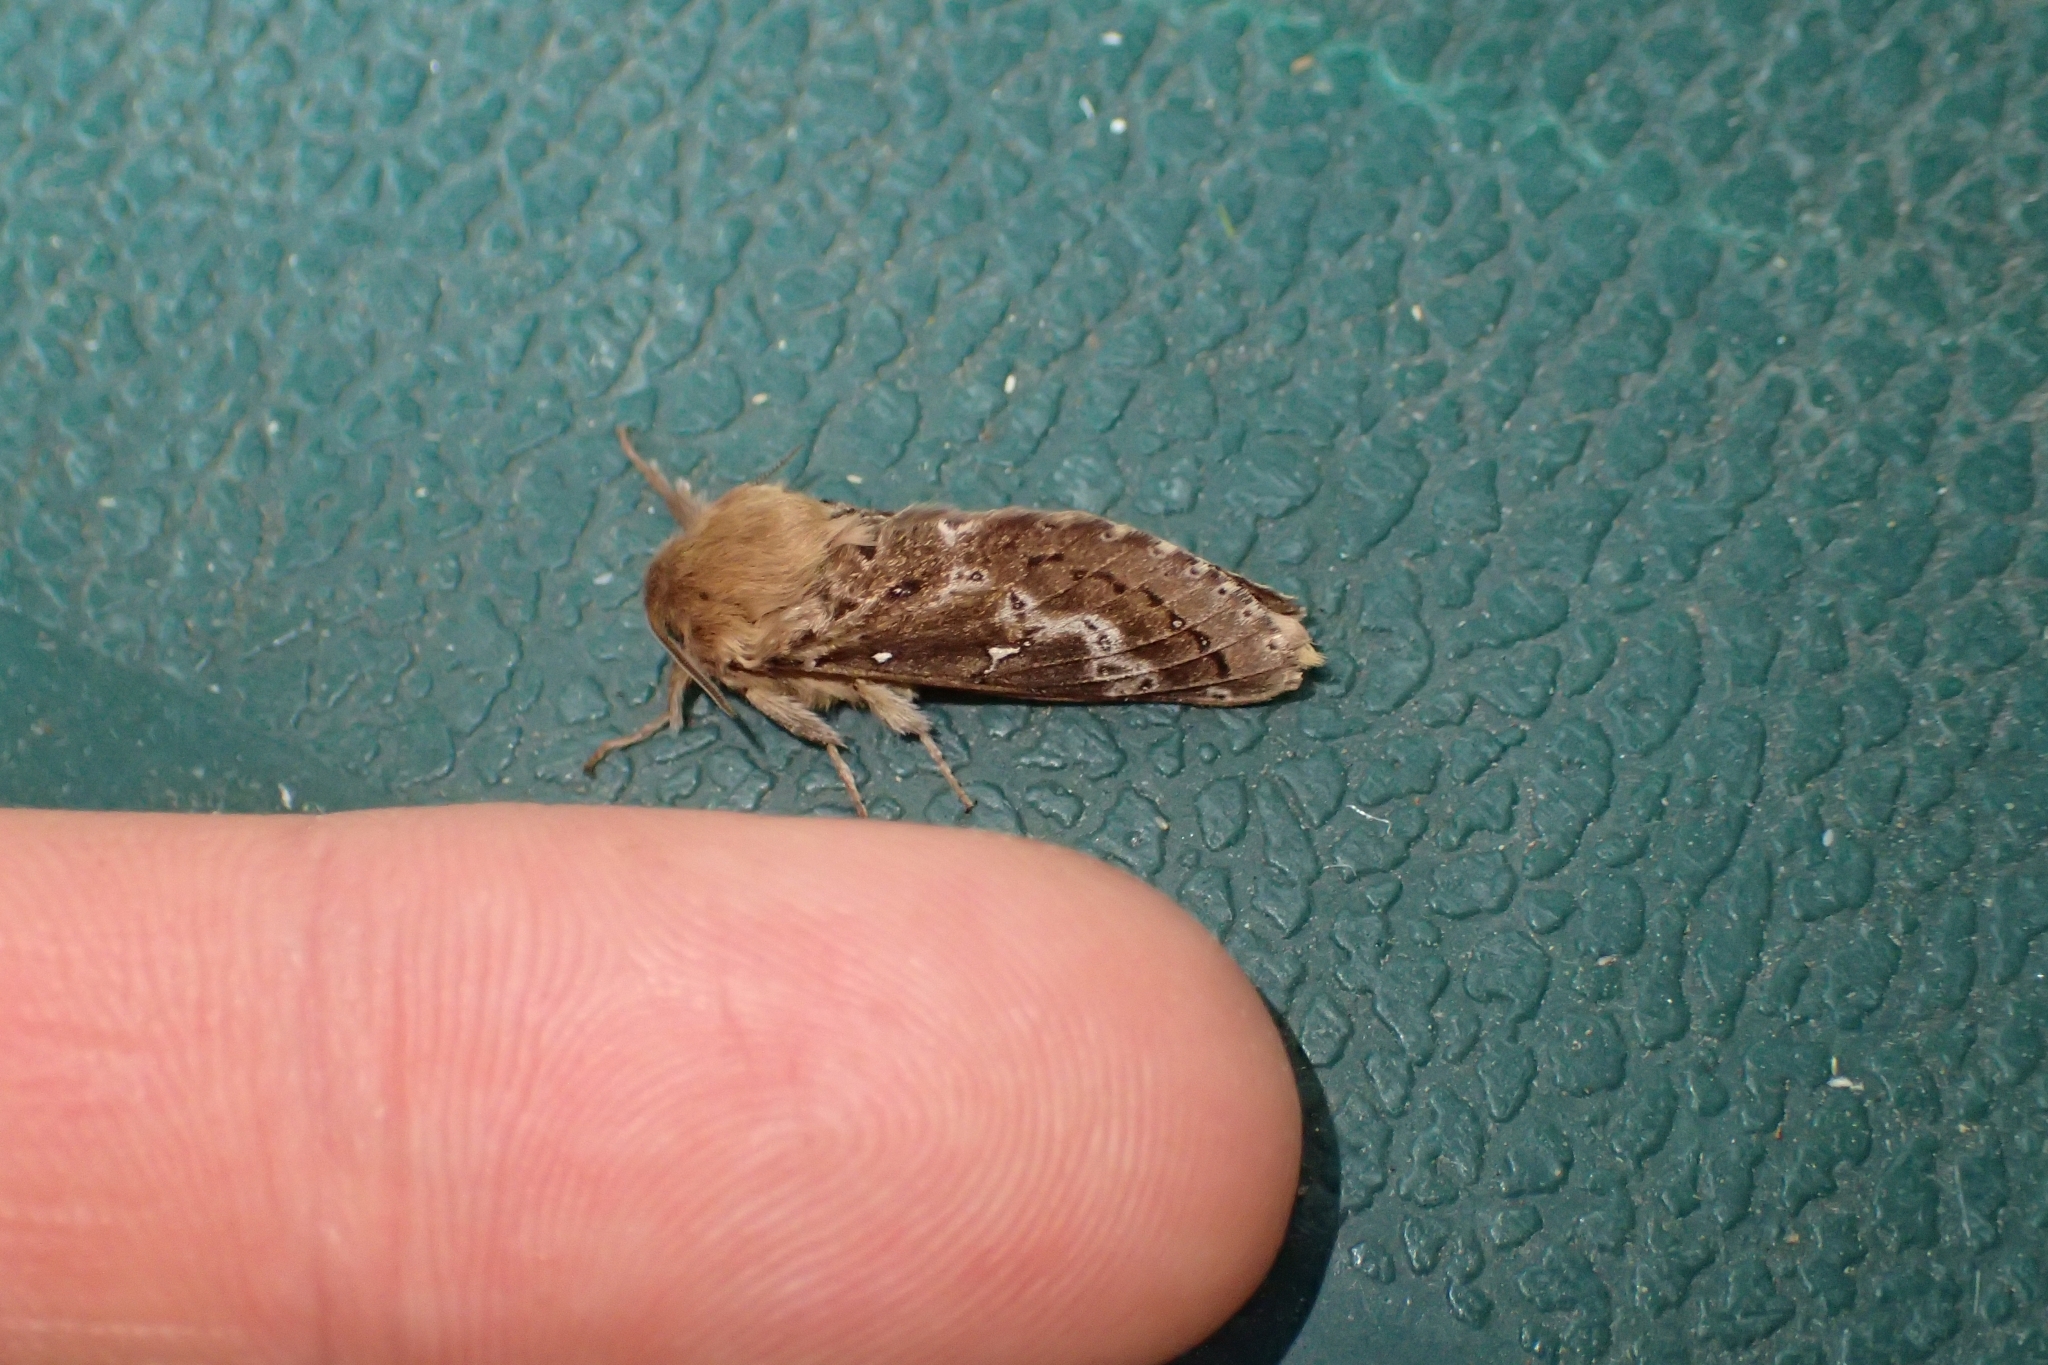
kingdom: Animalia
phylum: Arthropoda
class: Insecta
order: Lepidoptera
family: Hepialidae
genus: Wiseana
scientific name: Wiseana cervinata
